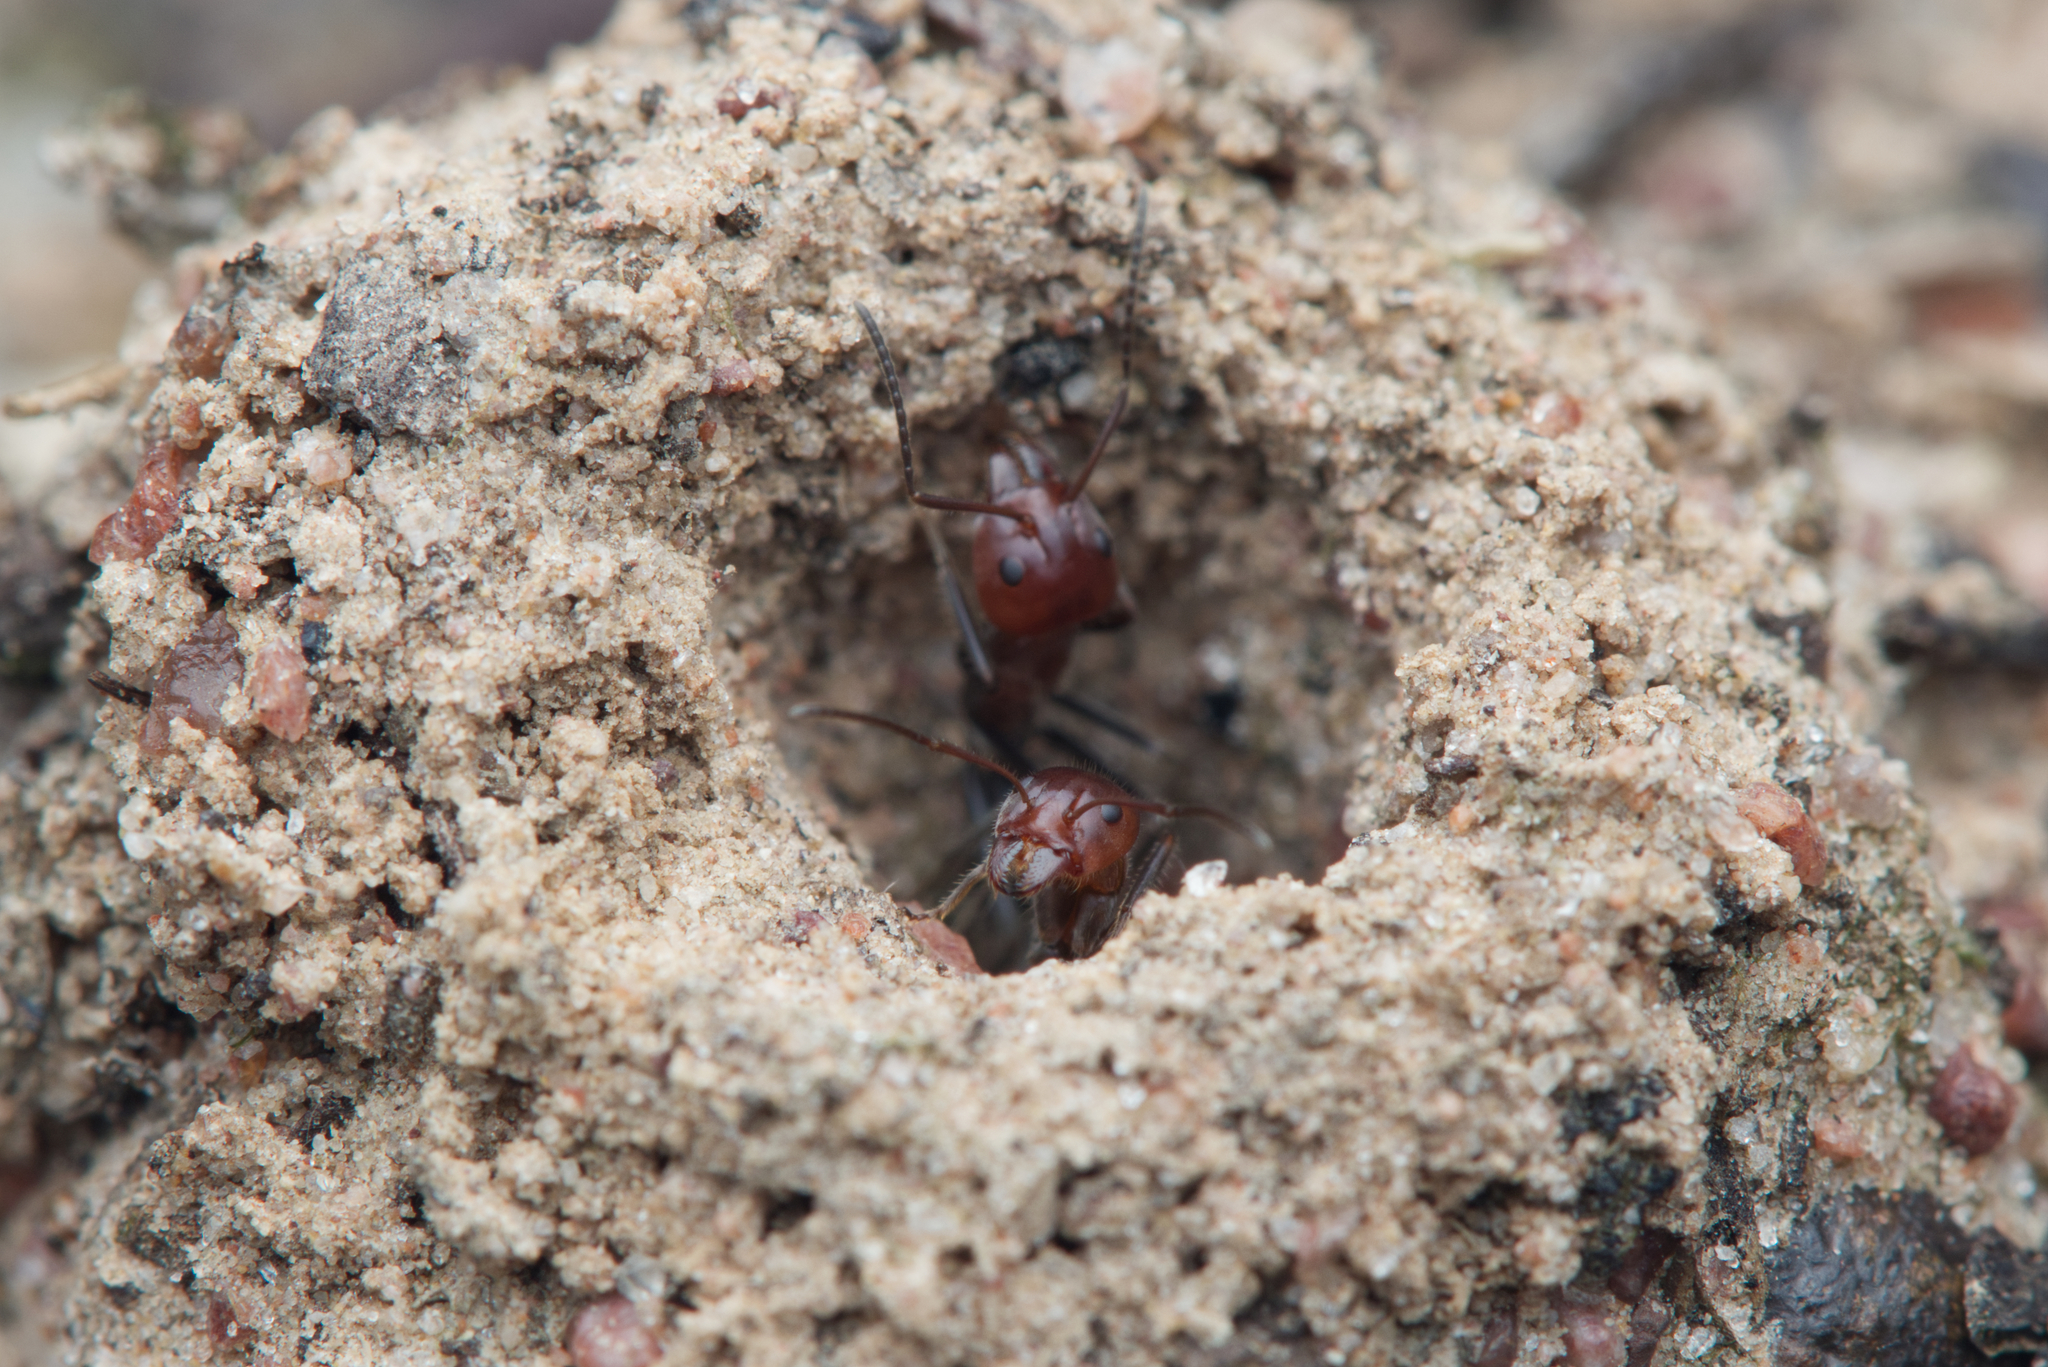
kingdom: Animalia
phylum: Arthropoda
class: Insecta
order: Hymenoptera
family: Formicidae
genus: Iridomyrmex
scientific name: Iridomyrmex discors
